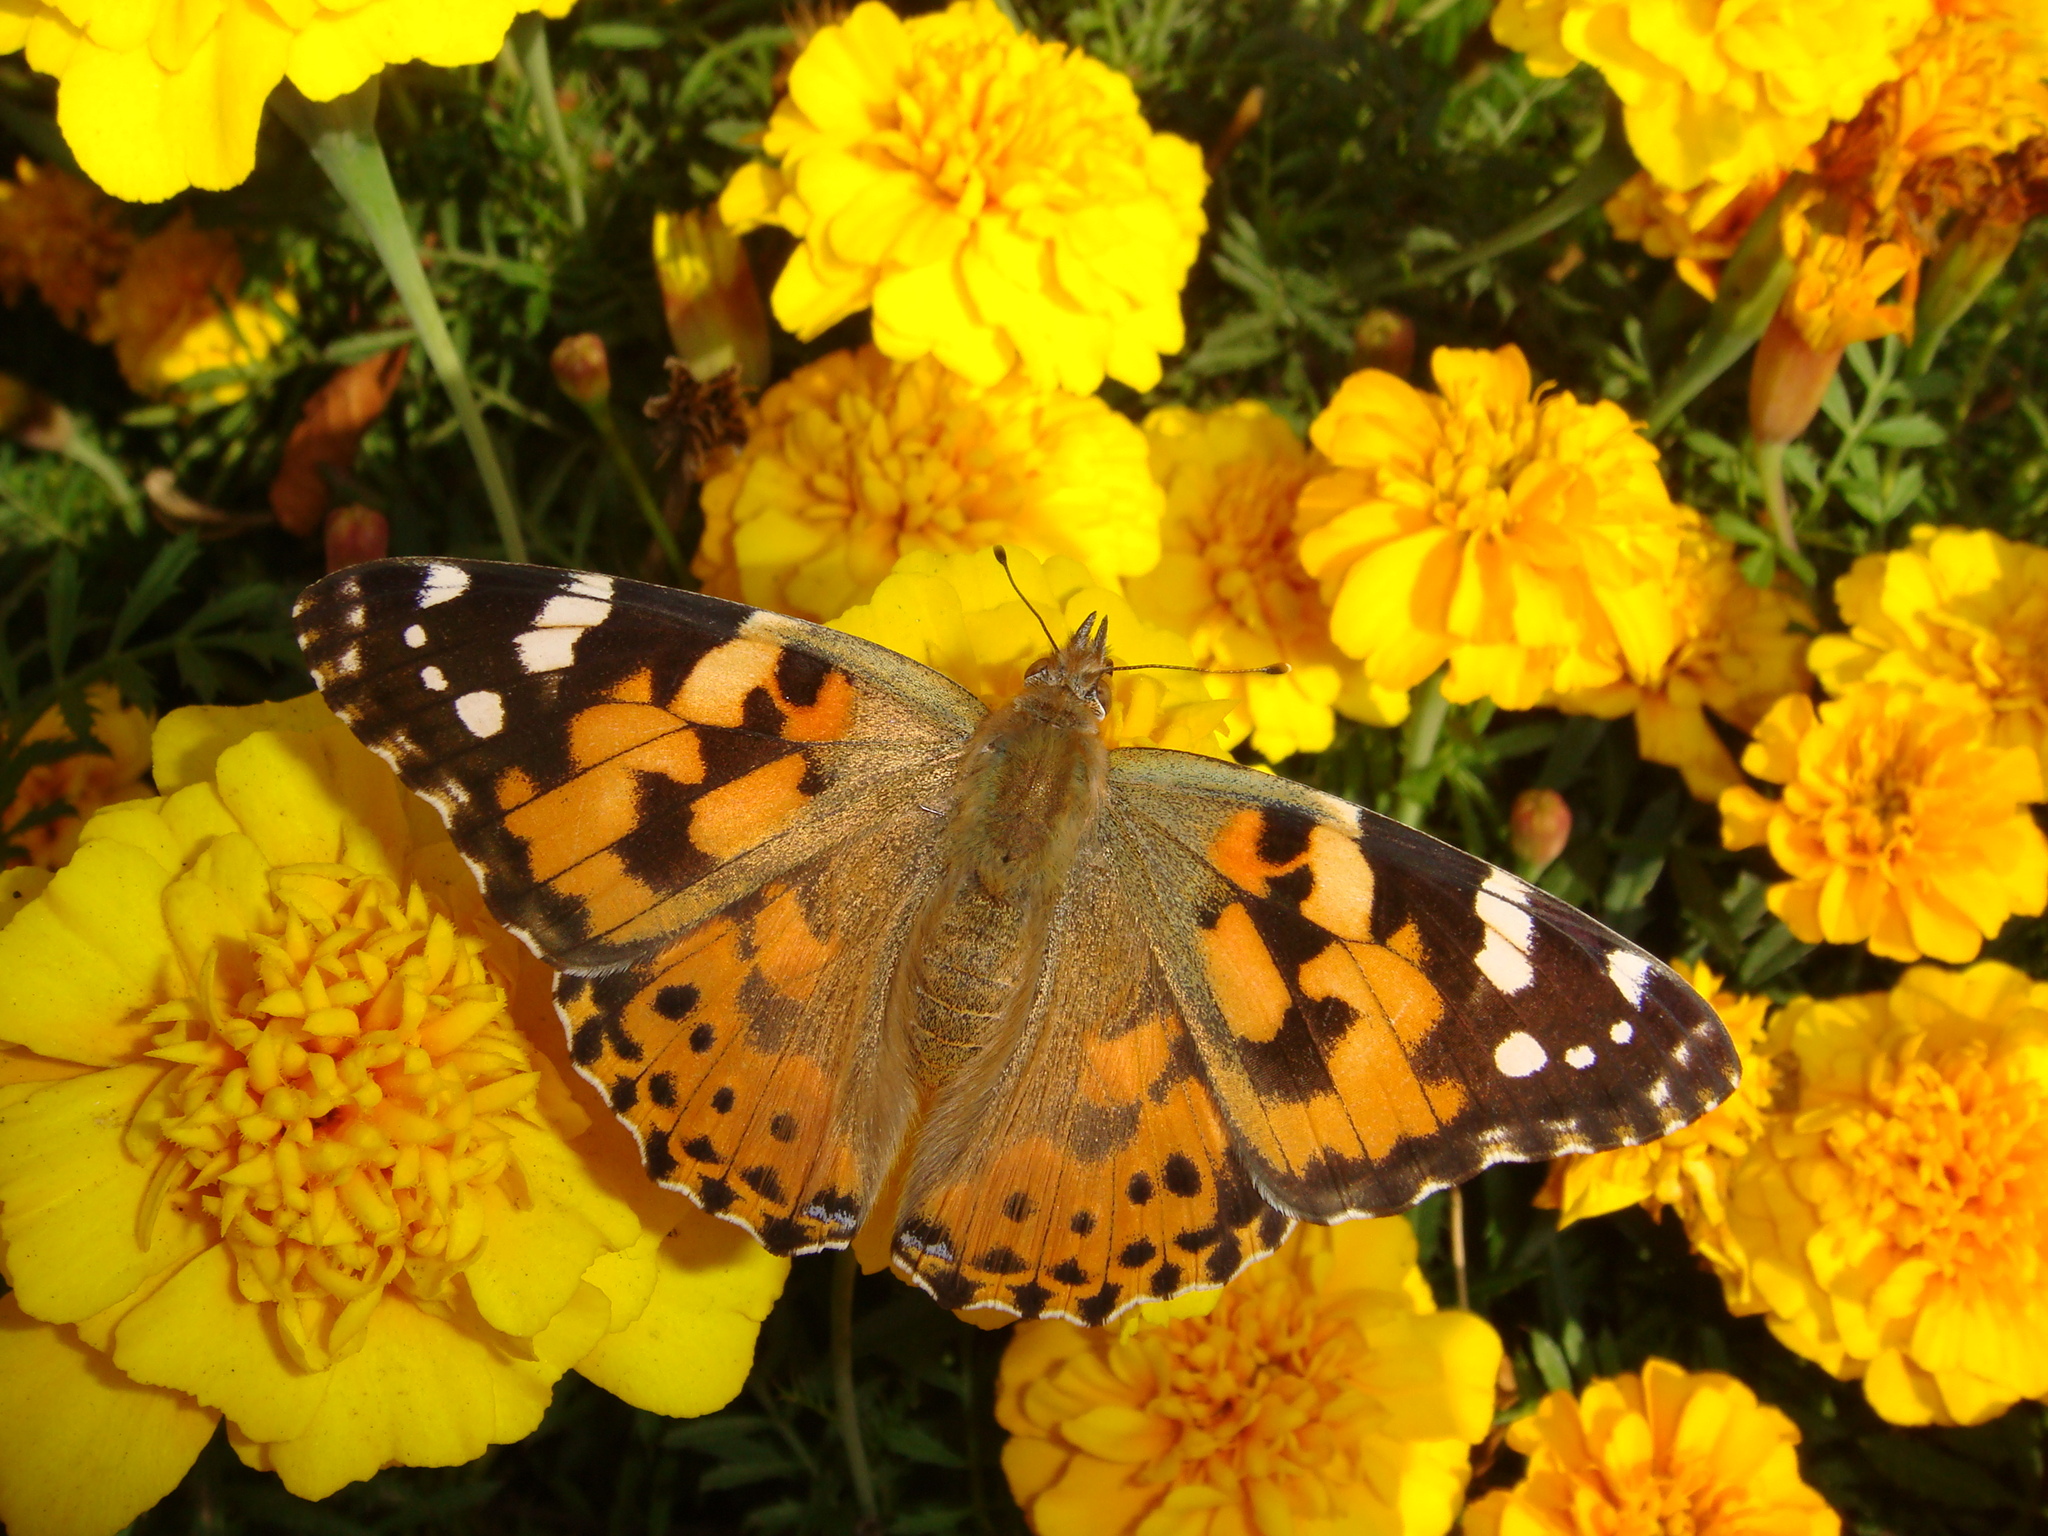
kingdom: Animalia
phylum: Arthropoda
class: Insecta
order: Lepidoptera
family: Nymphalidae
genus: Vanessa
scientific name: Vanessa cardui
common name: Painted lady
